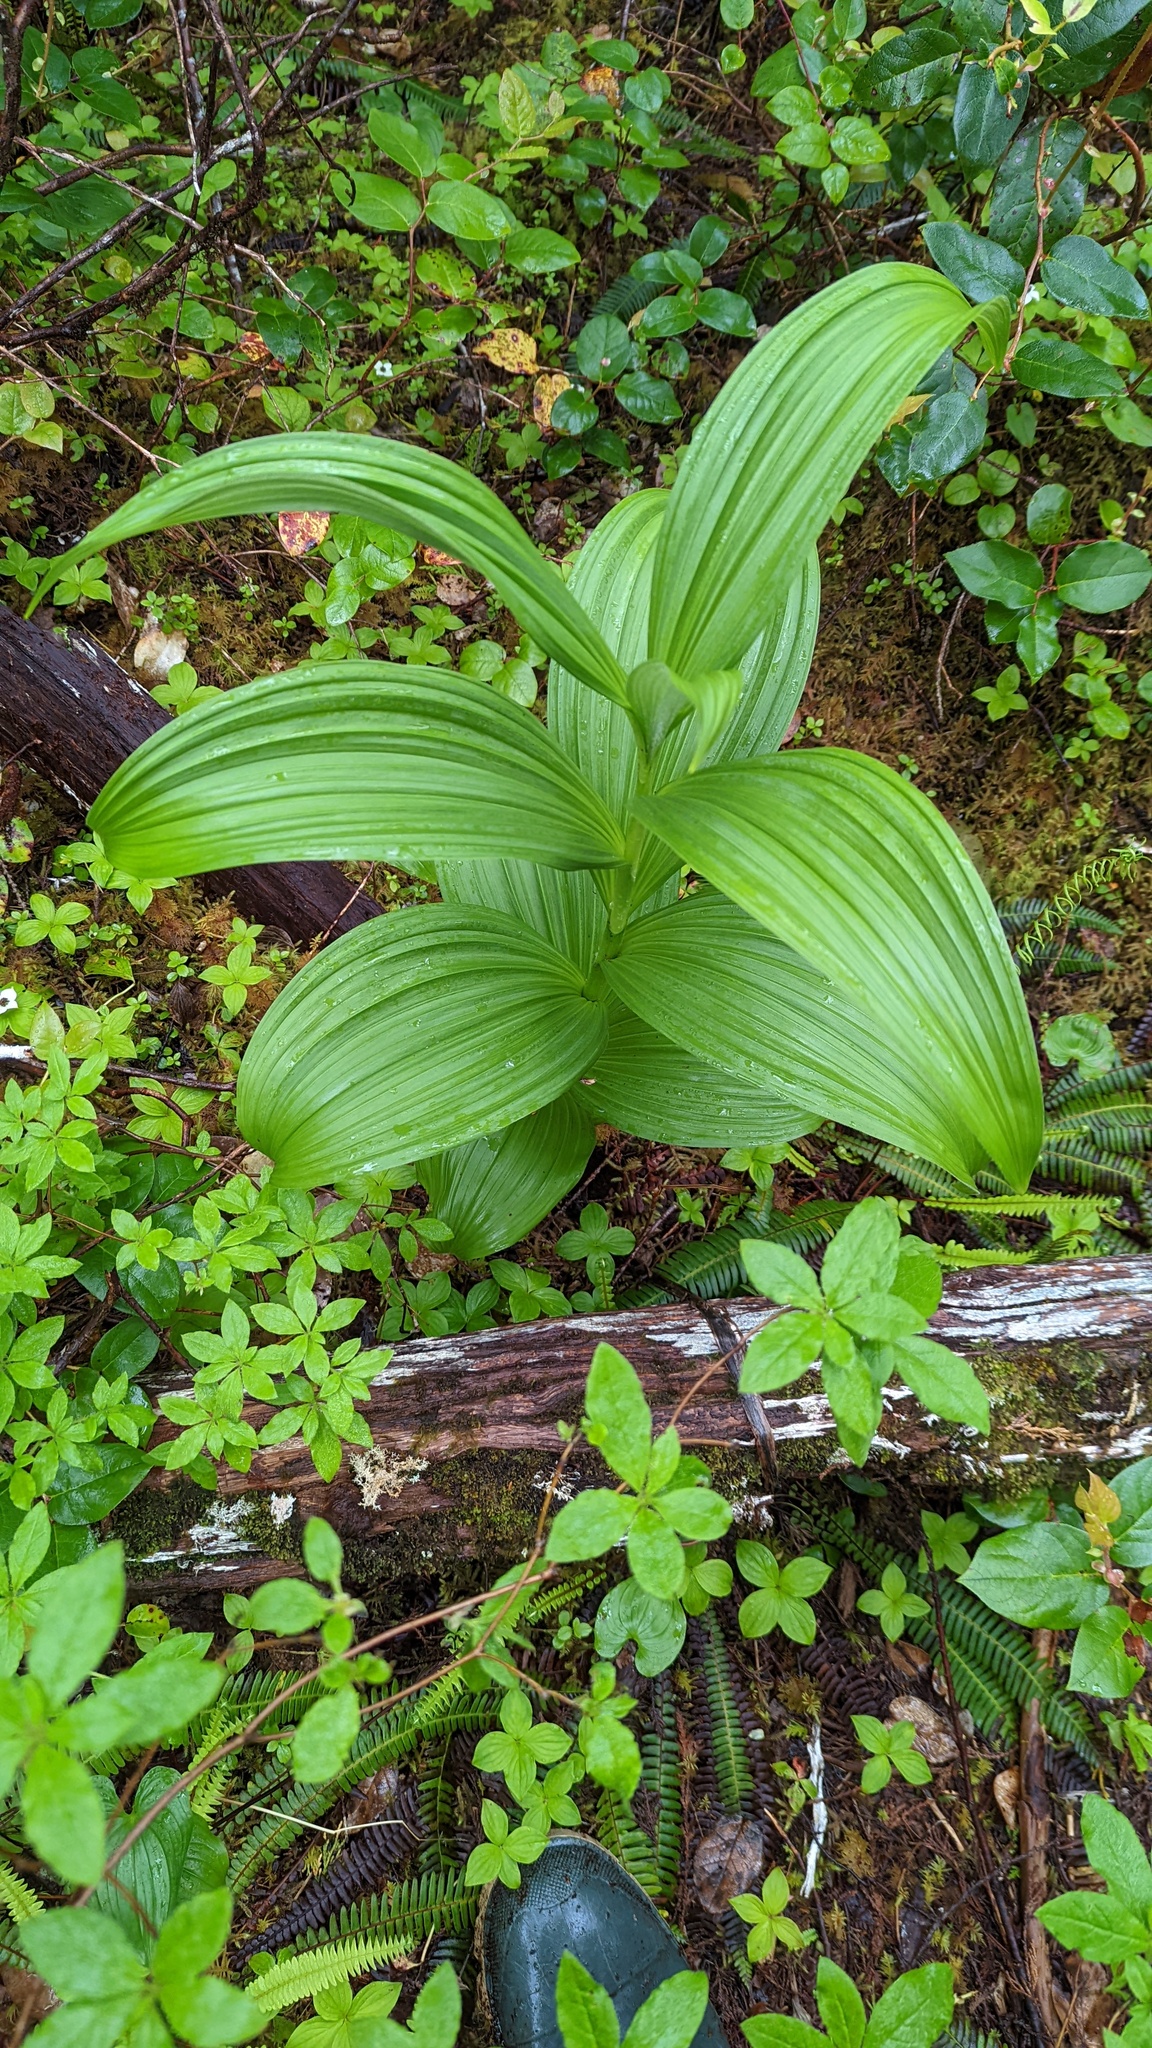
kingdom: Plantae
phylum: Tracheophyta
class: Liliopsida
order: Liliales
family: Melanthiaceae
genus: Veratrum
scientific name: Veratrum viride
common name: American false hellebore
